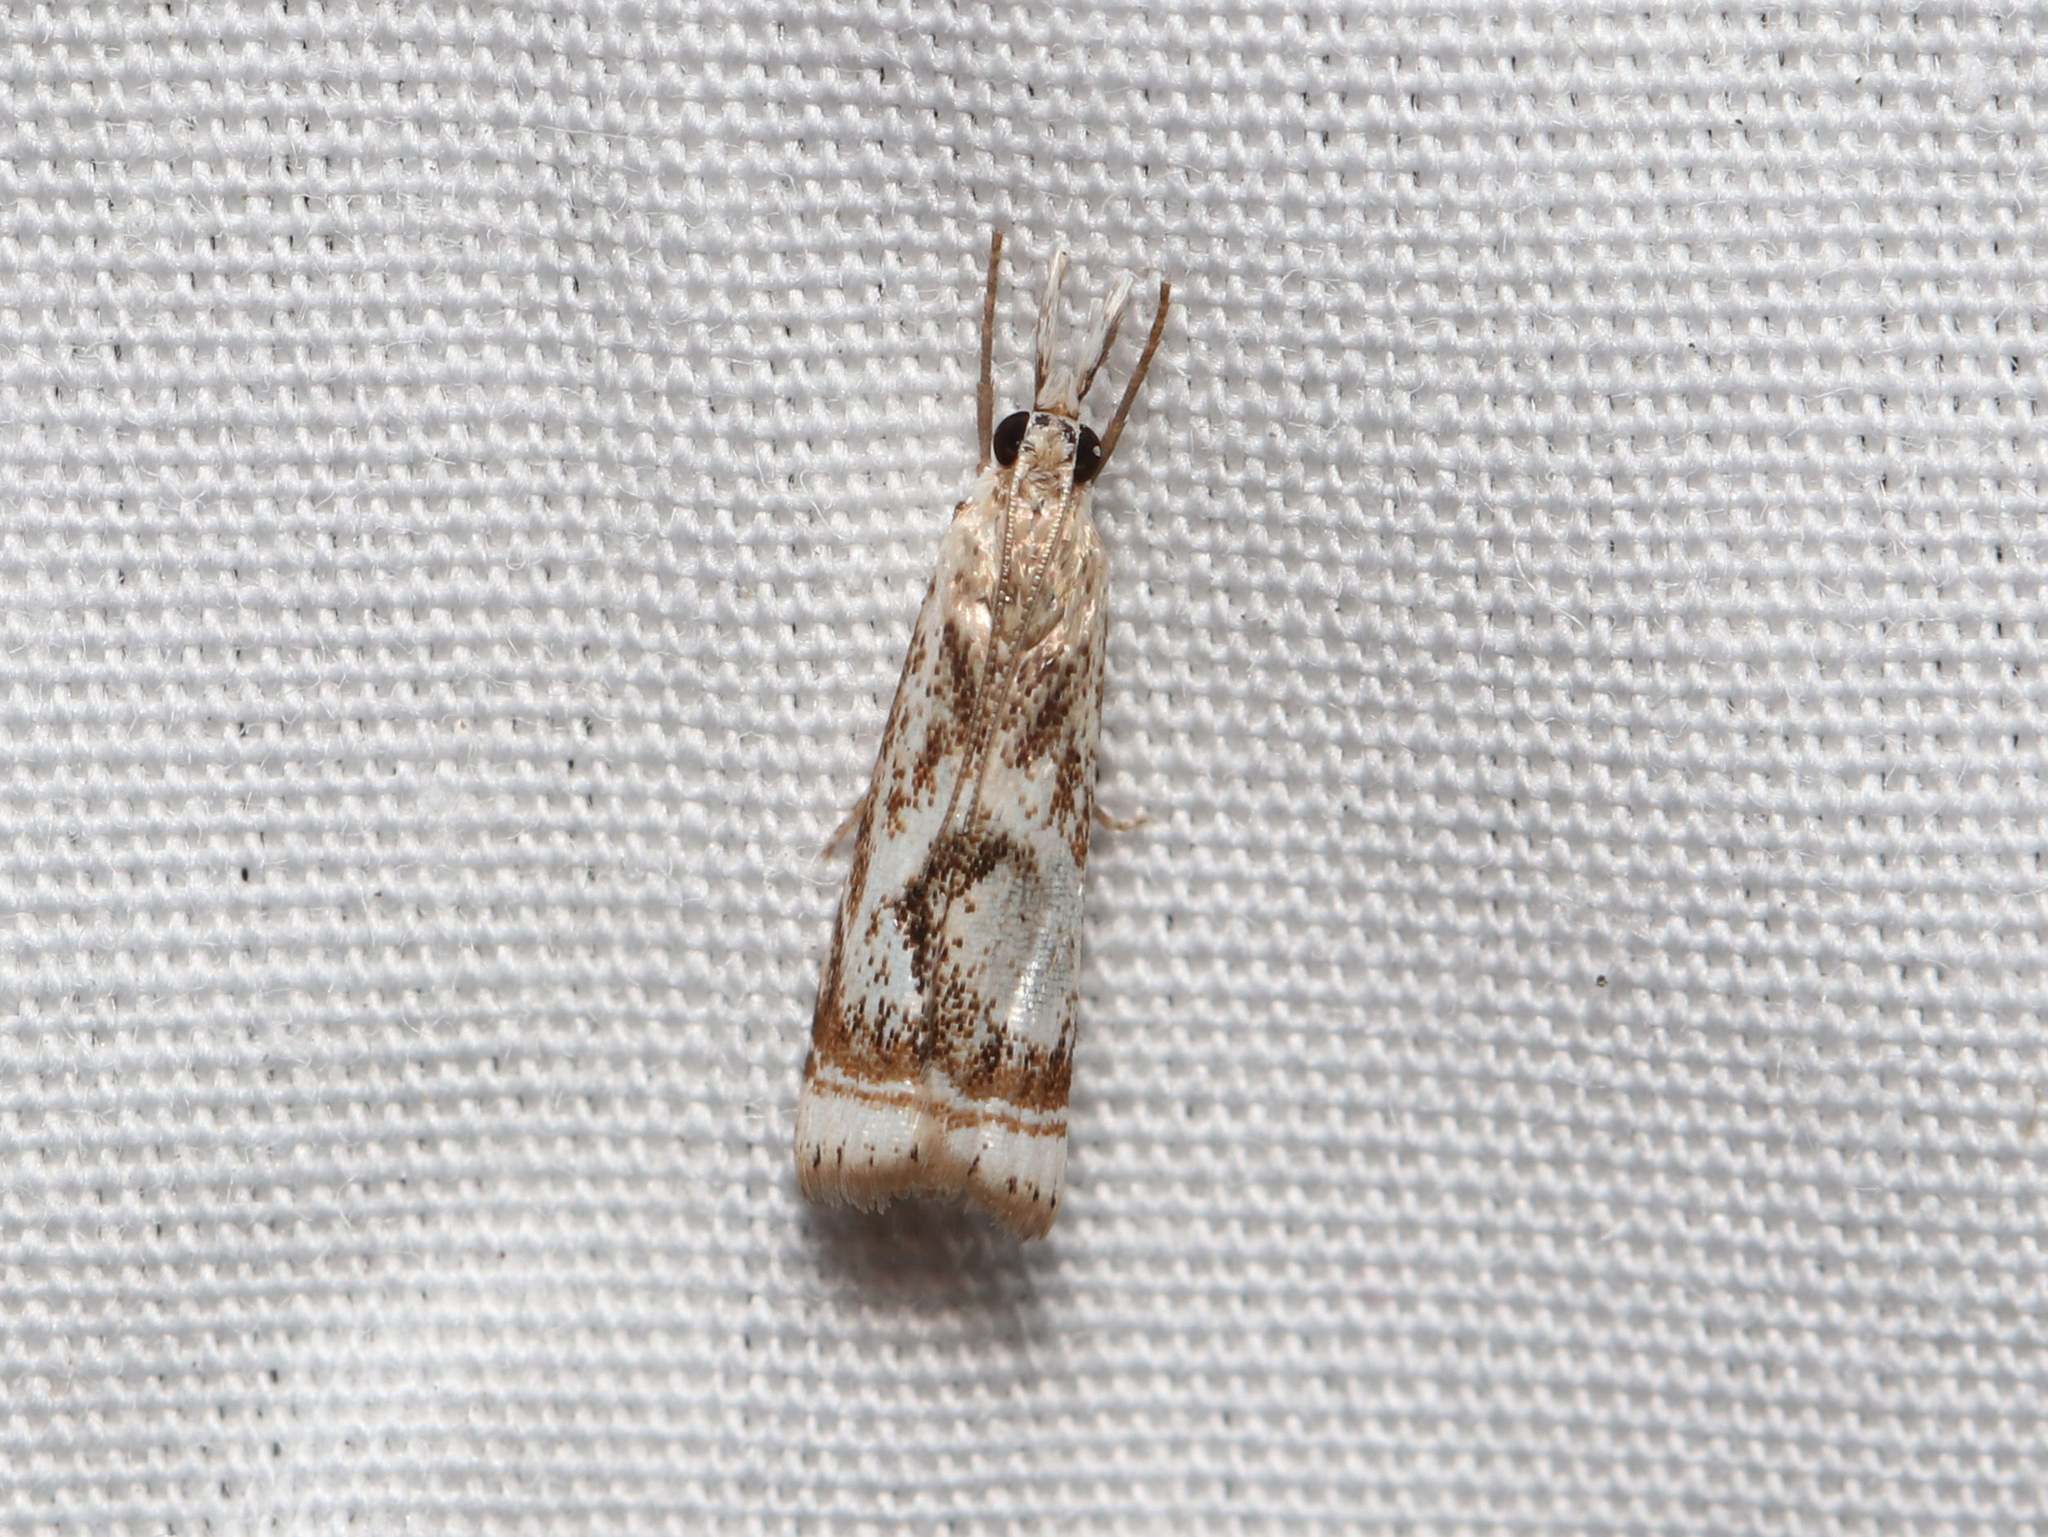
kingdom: Animalia
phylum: Arthropoda
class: Insecta
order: Lepidoptera
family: Crambidae
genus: Microcrambus
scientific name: Microcrambus elegans
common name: Elegant grass-veneer
